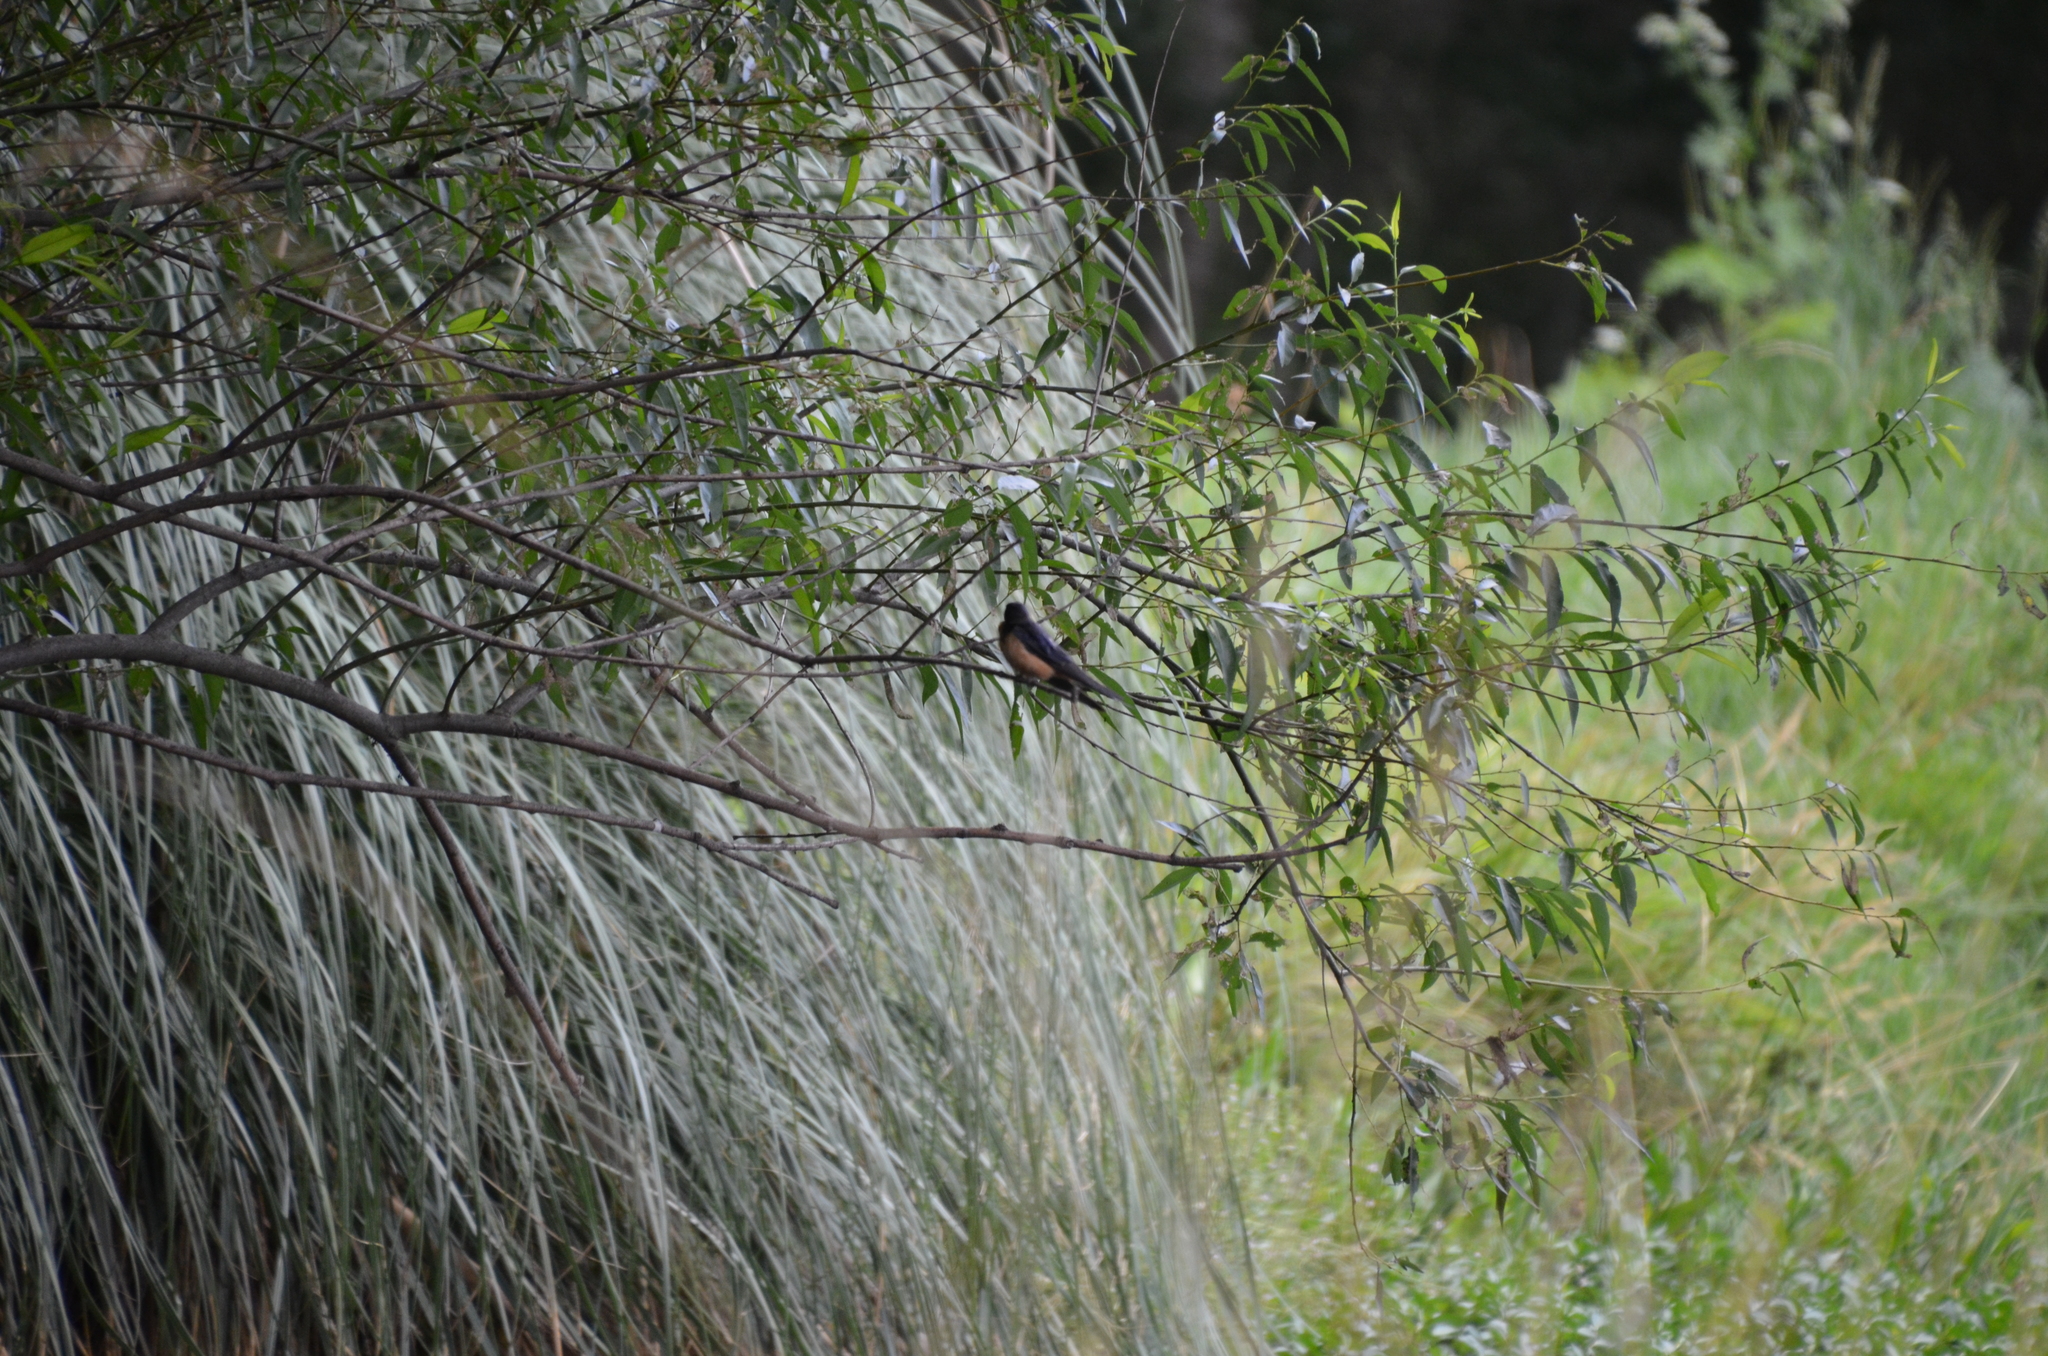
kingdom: Animalia
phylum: Chordata
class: Aves
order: Passeriformes
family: Hirundinidae
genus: Hirundo
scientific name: Hirundo rustica
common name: Barn swallow
